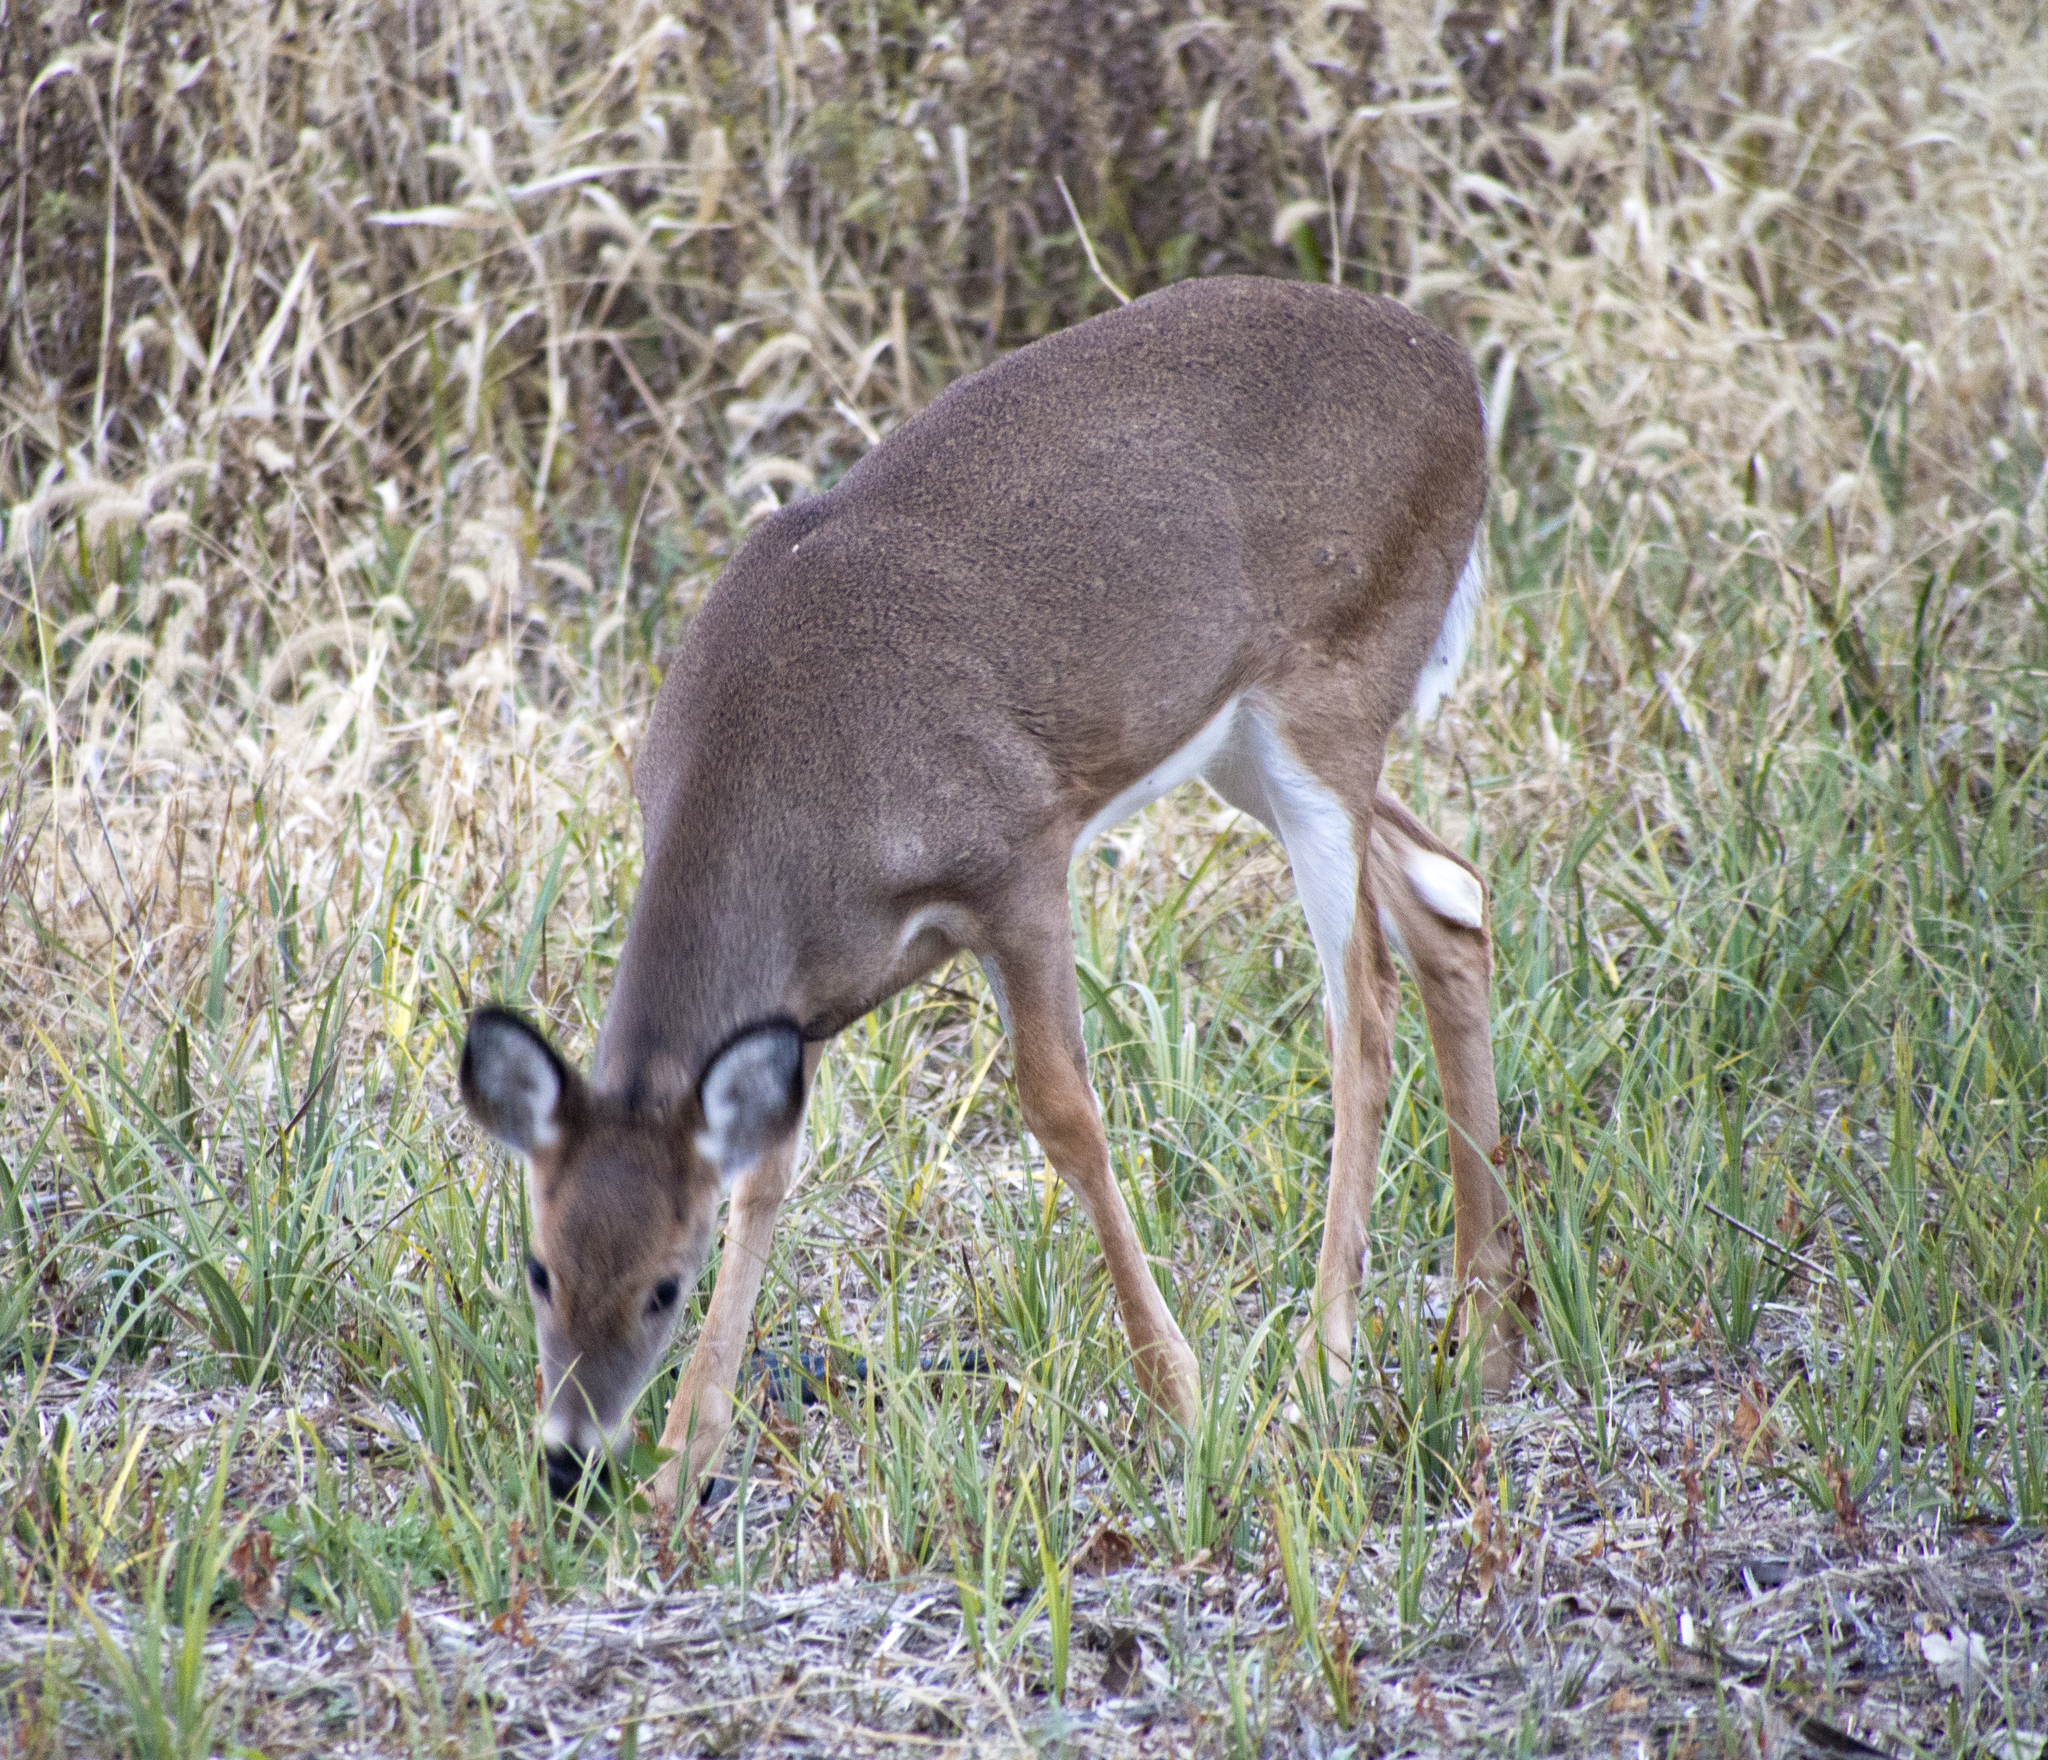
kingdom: Animalia
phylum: Chordata
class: Mammalia
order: Artiodactyla
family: Cervidae
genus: Odocoileus
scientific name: Odocoileus virginianus
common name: White-tailed deer
